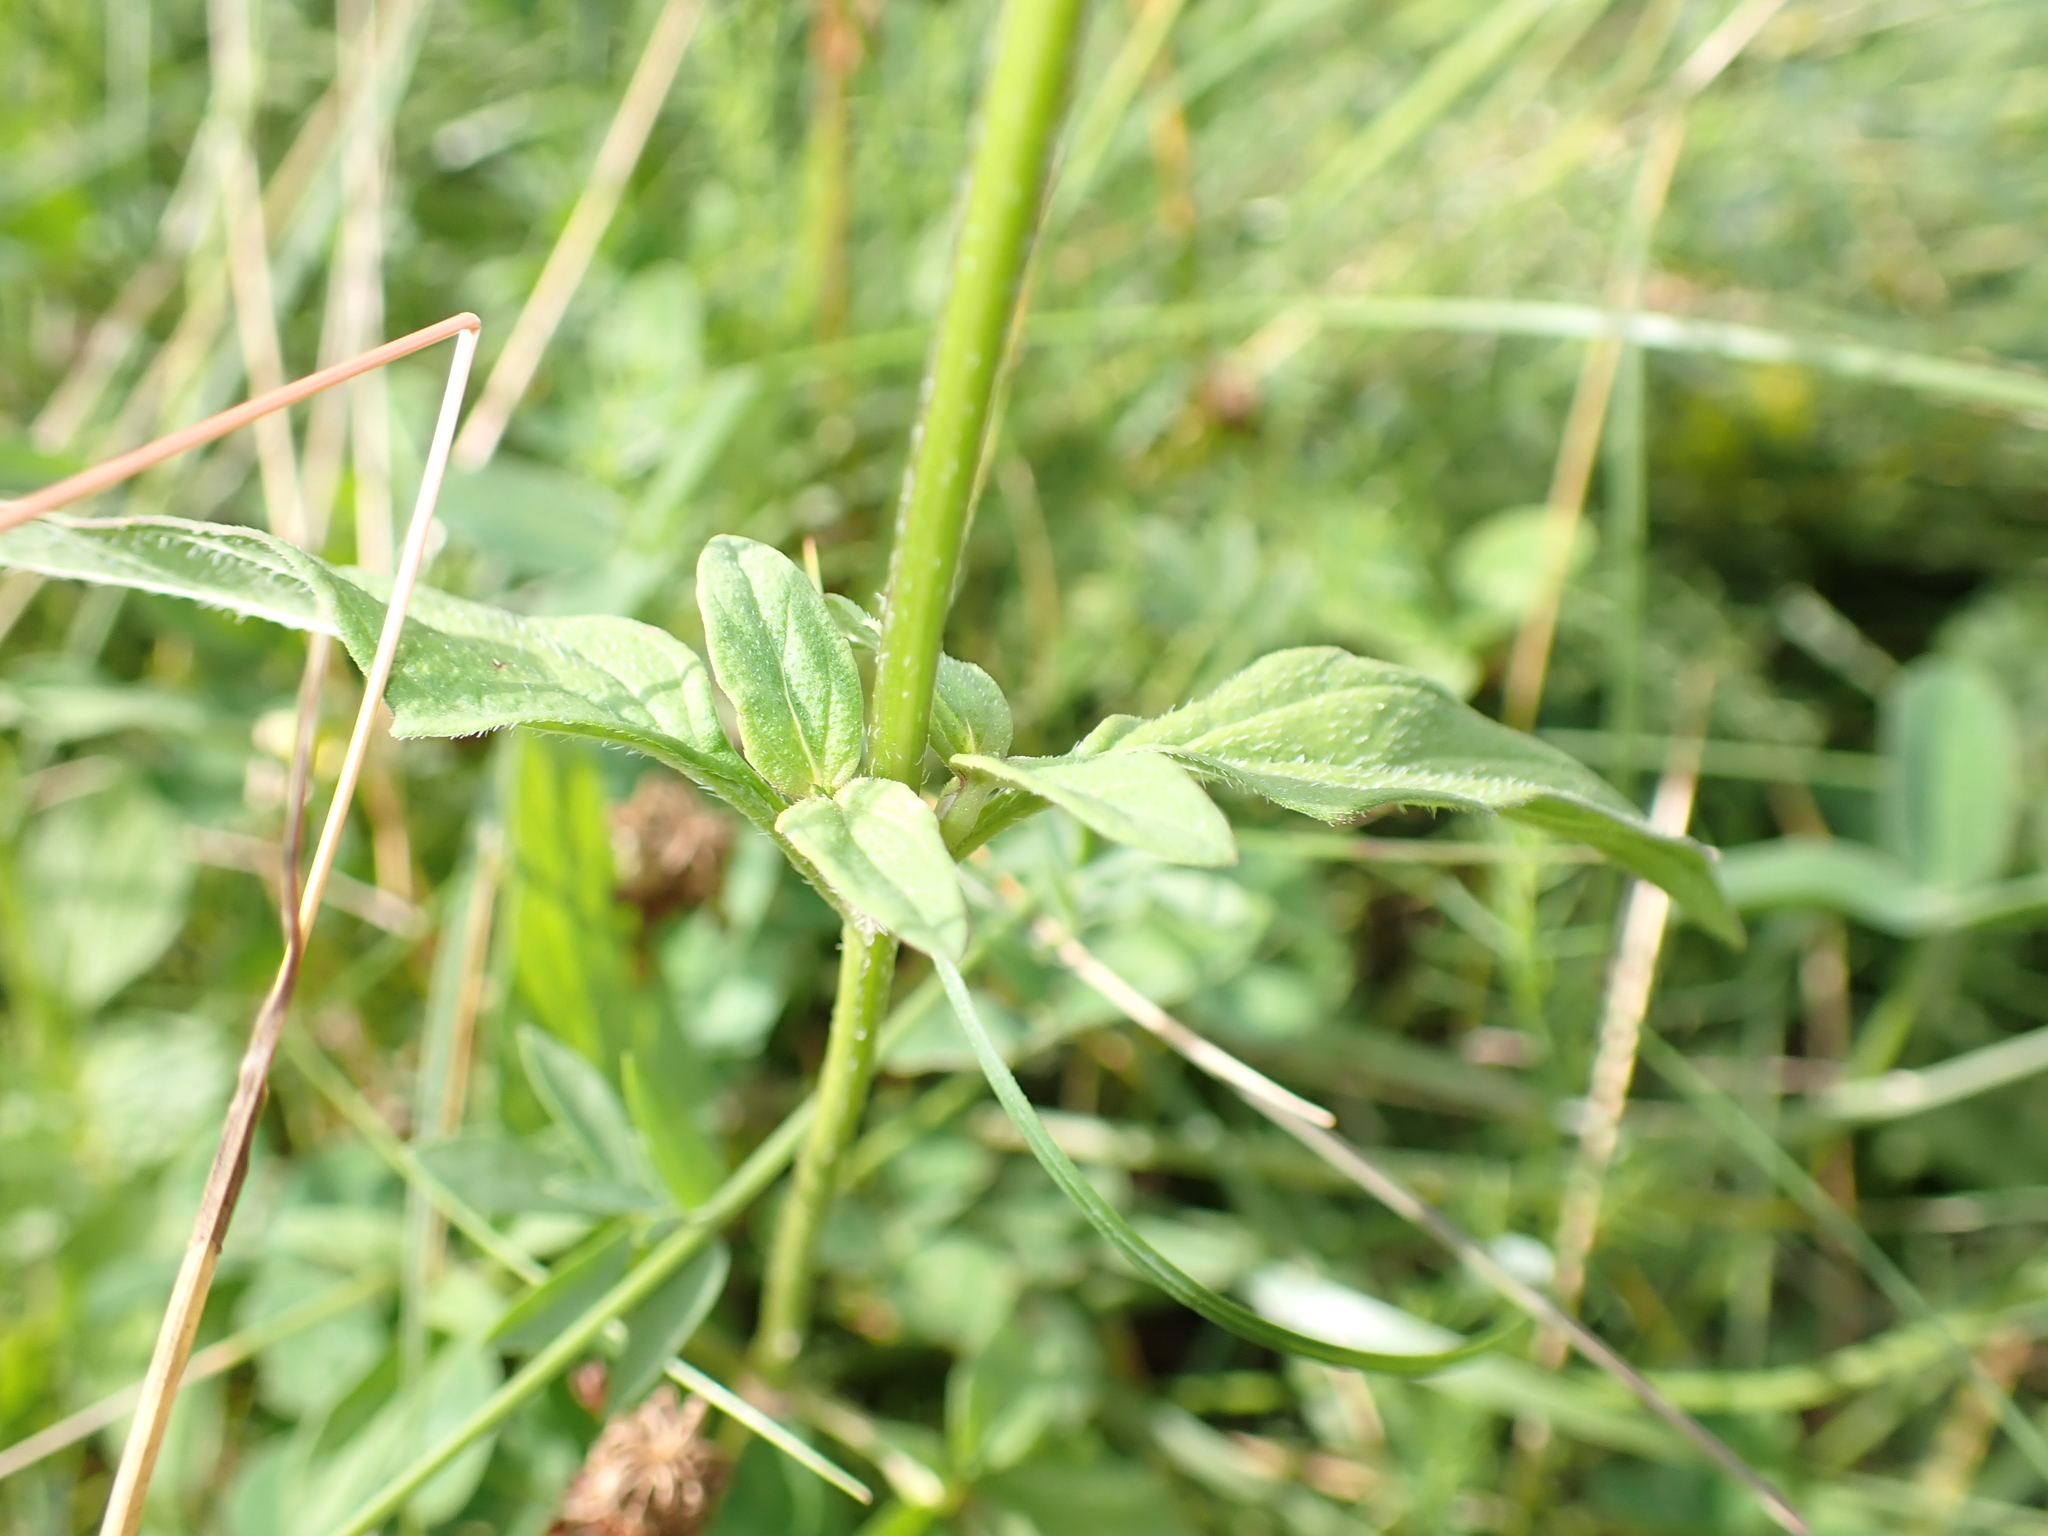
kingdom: Plantae
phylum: Tracheophyta
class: Magnoliopsida
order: Lamiales
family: Lamiaceae
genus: Prunella
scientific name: Prunella vulgaris
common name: Heal-all
